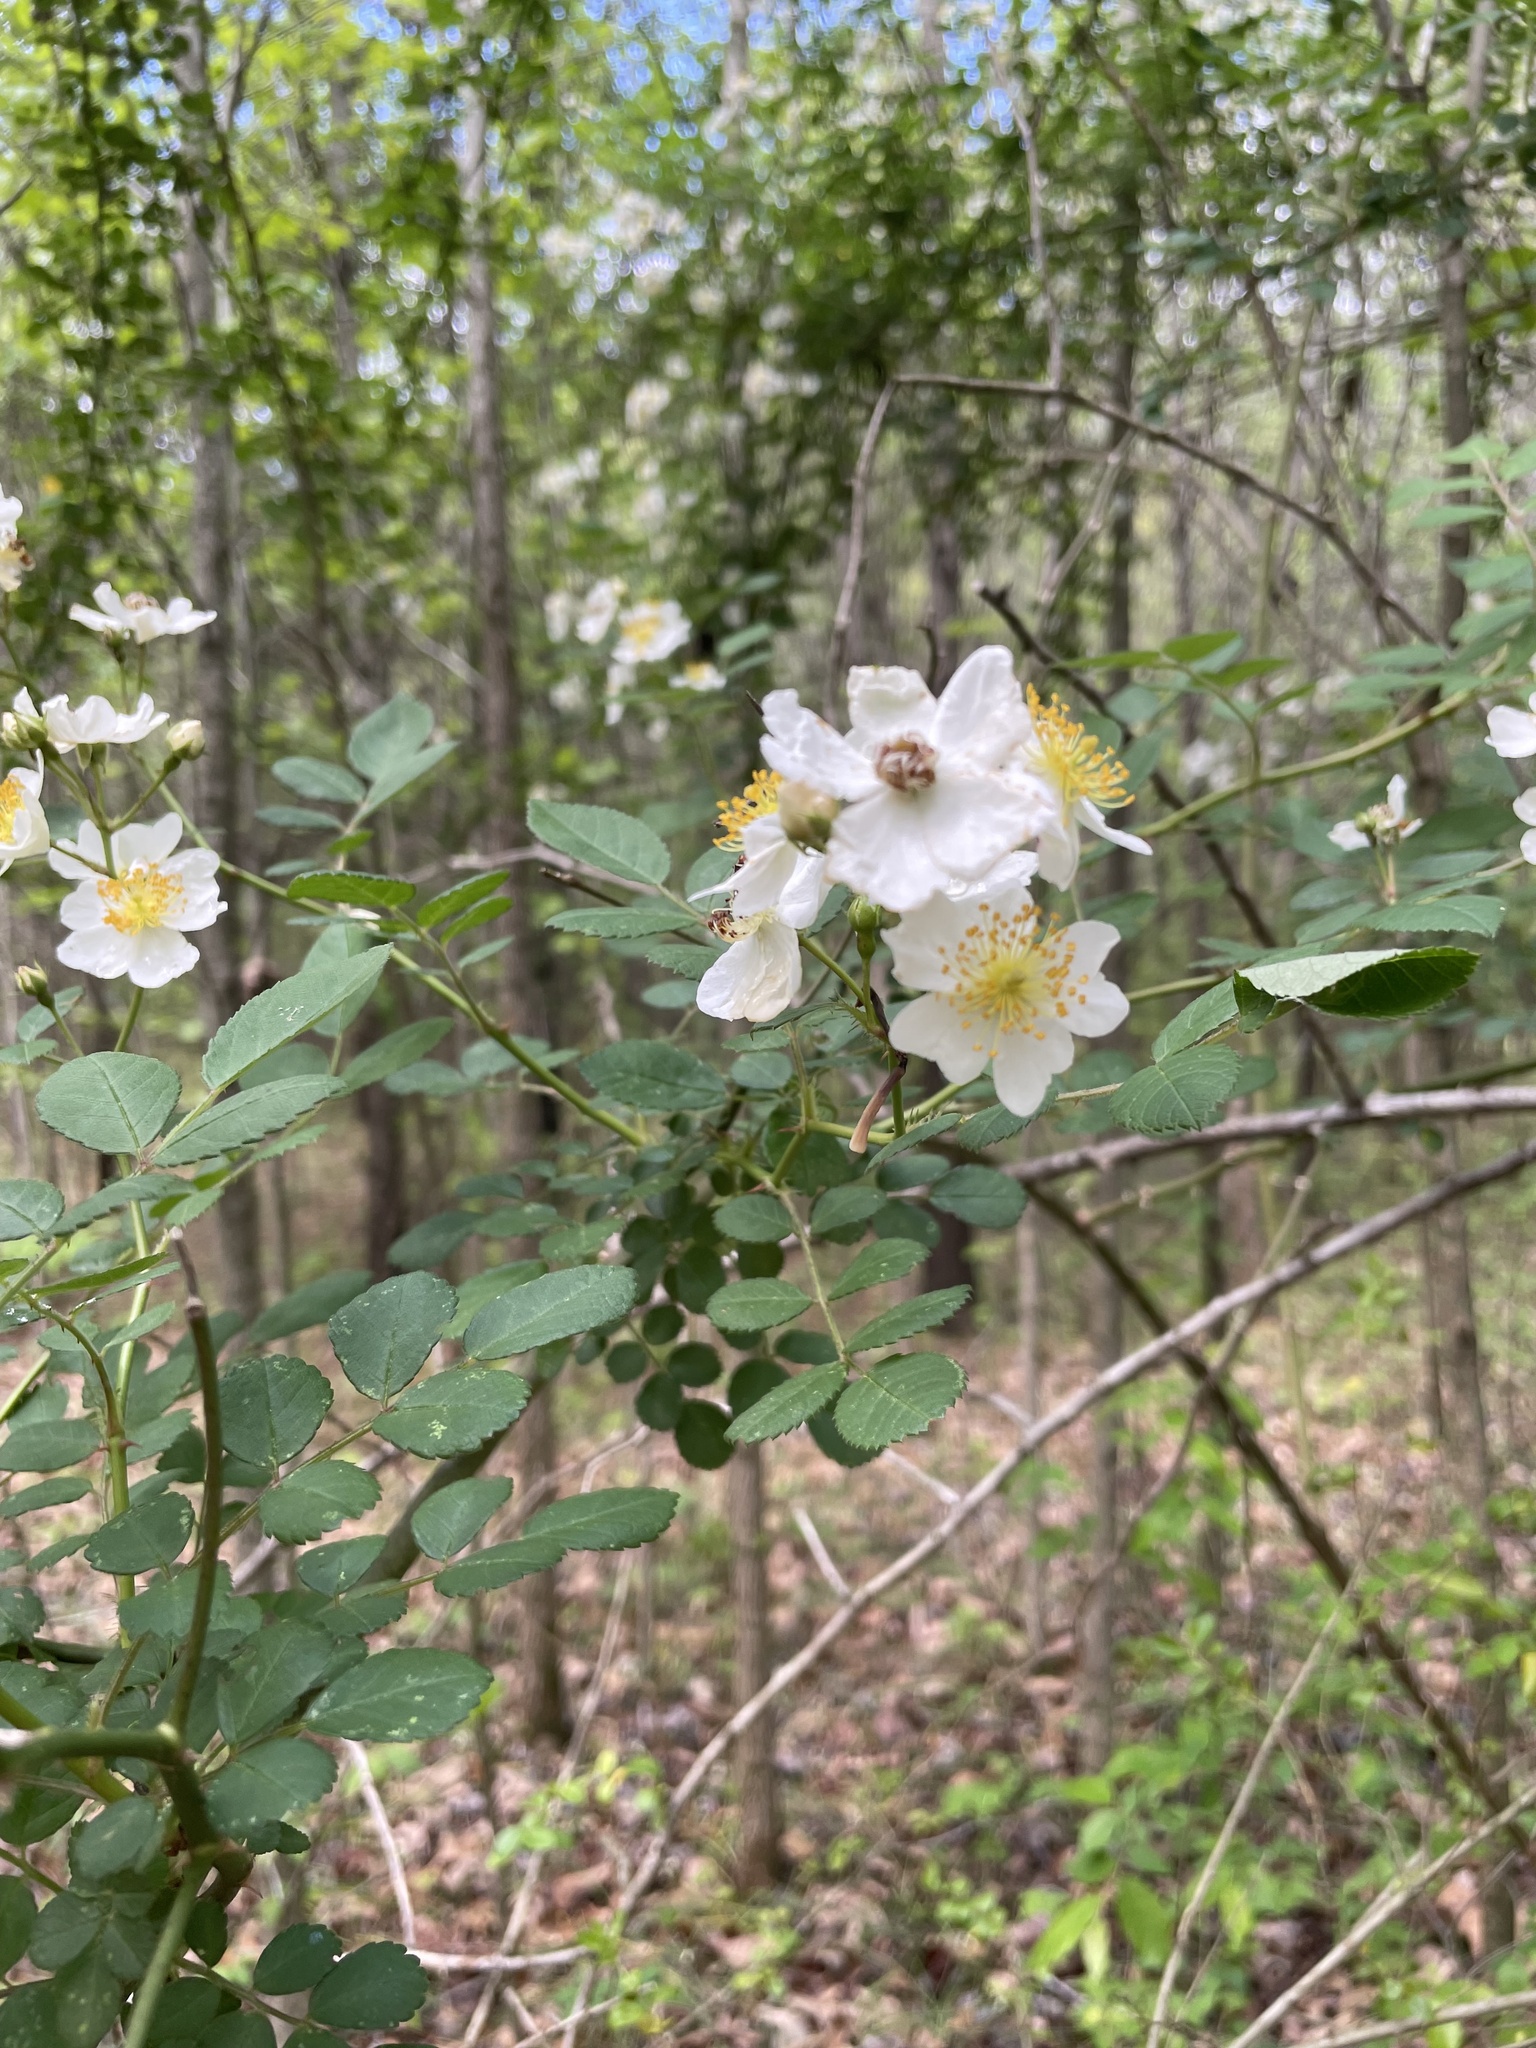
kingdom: Plantae
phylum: Tracheophyta
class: Magnoliopsida
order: Rosales
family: Rosaceae
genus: Rosa
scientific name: Rosa multiflora
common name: Multiflora rose
